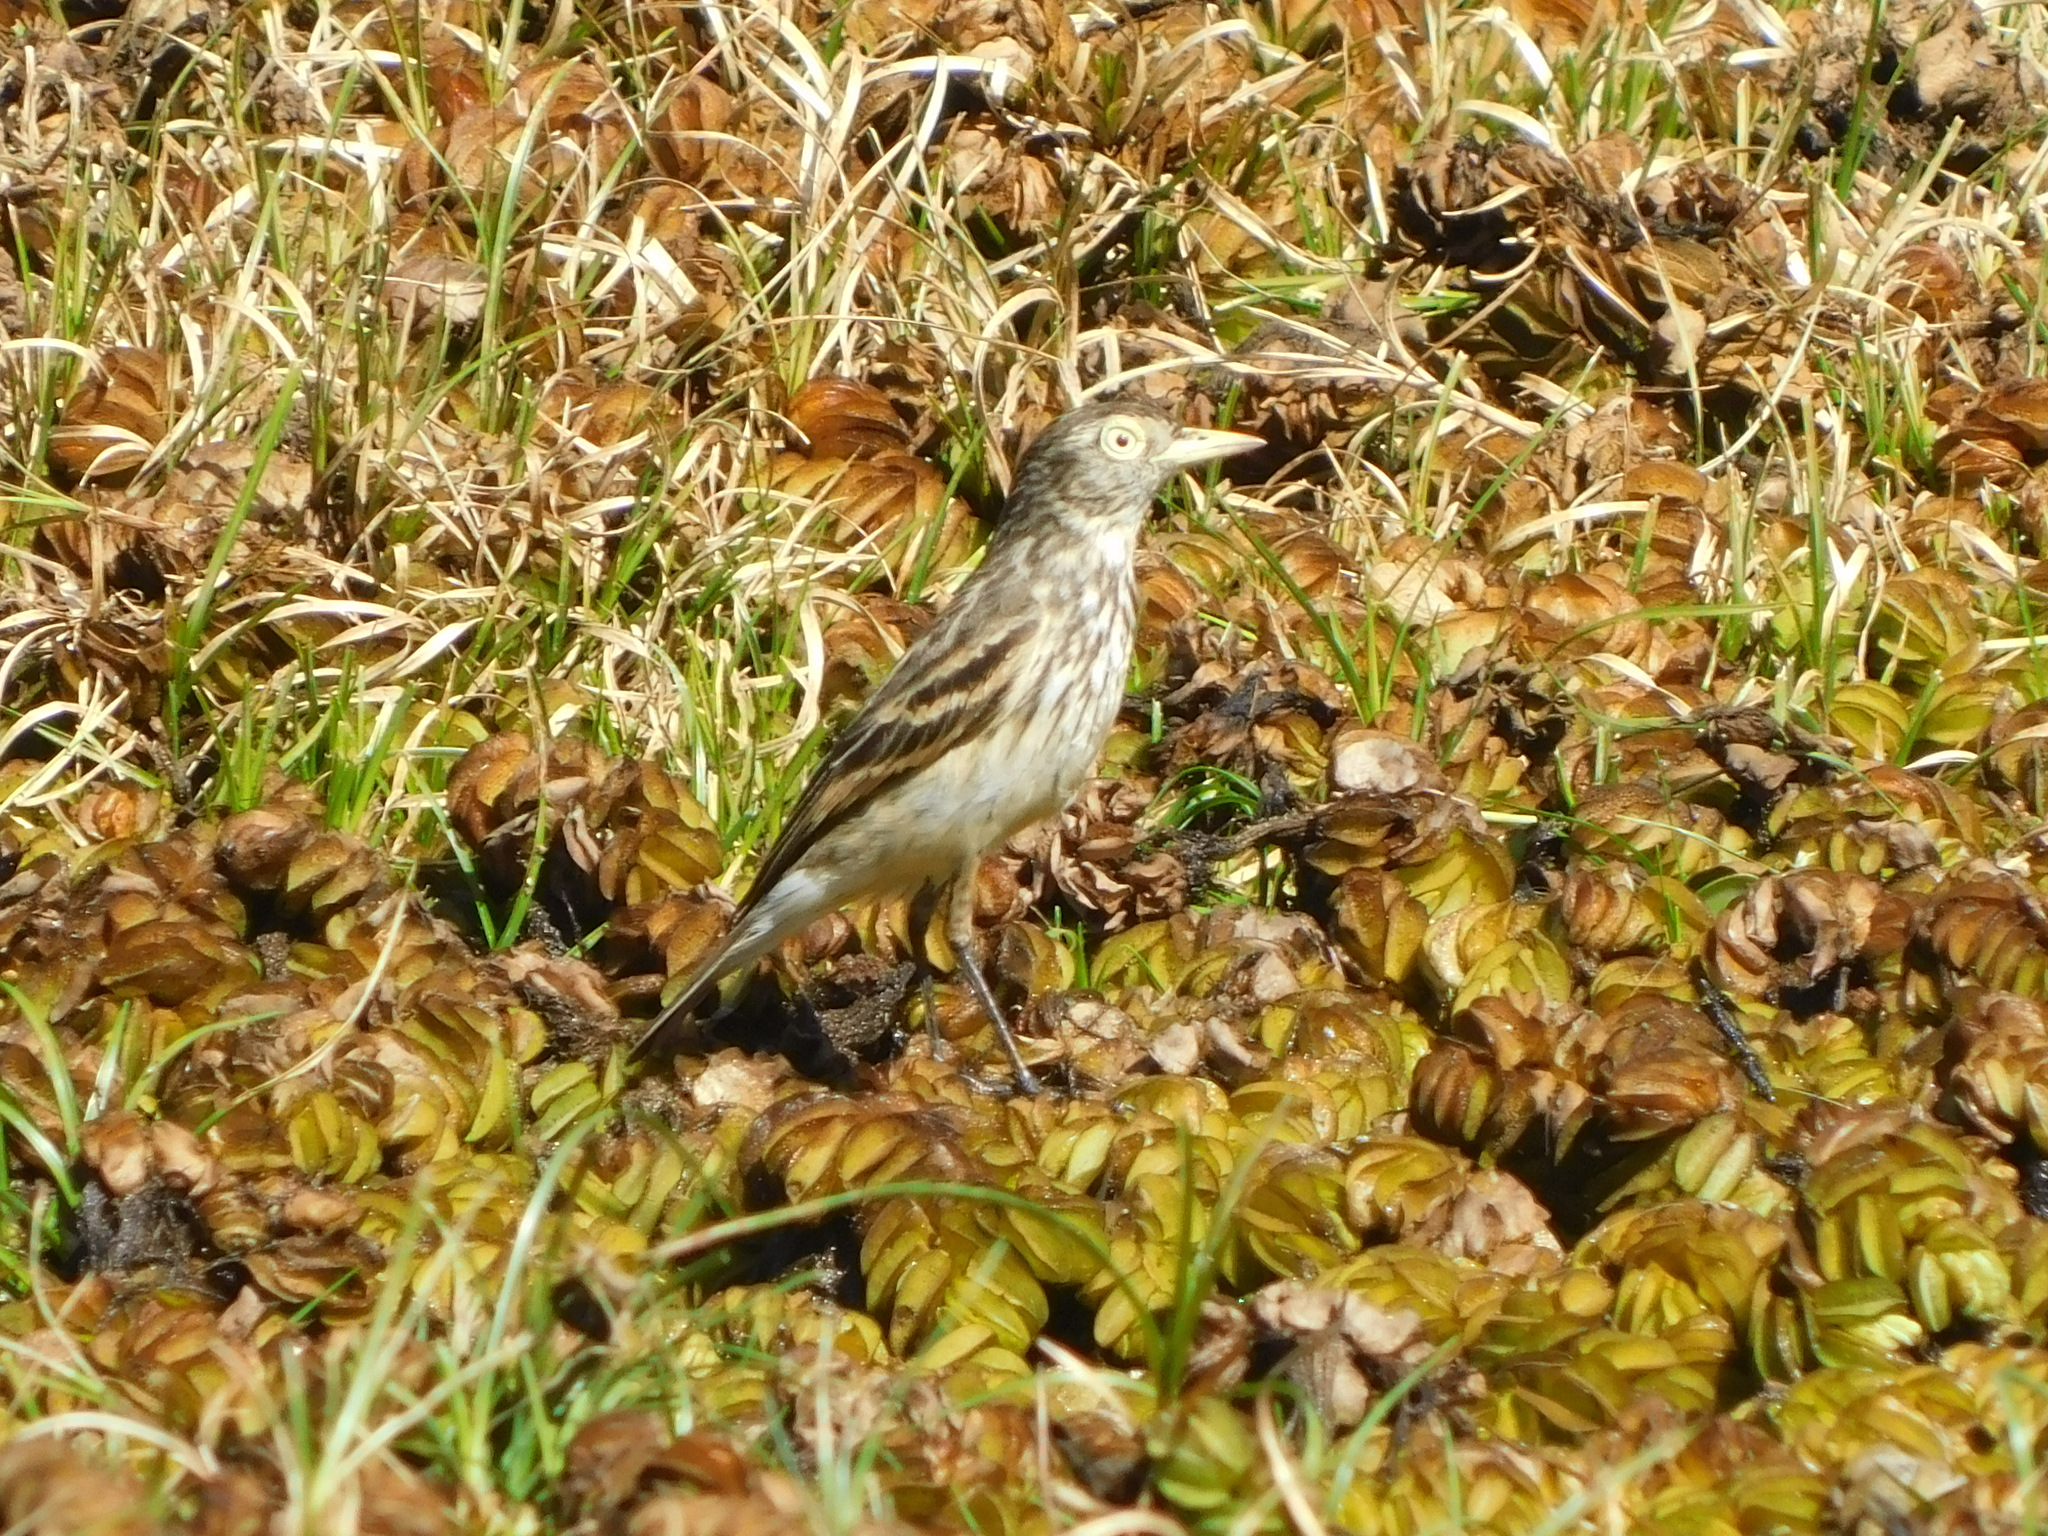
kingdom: Animalia
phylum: Chordata
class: Aves
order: Passeriformes
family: Tyrannidae
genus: Hymenops
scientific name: Hymenops perspicillatus
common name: Spectacled tyrant
